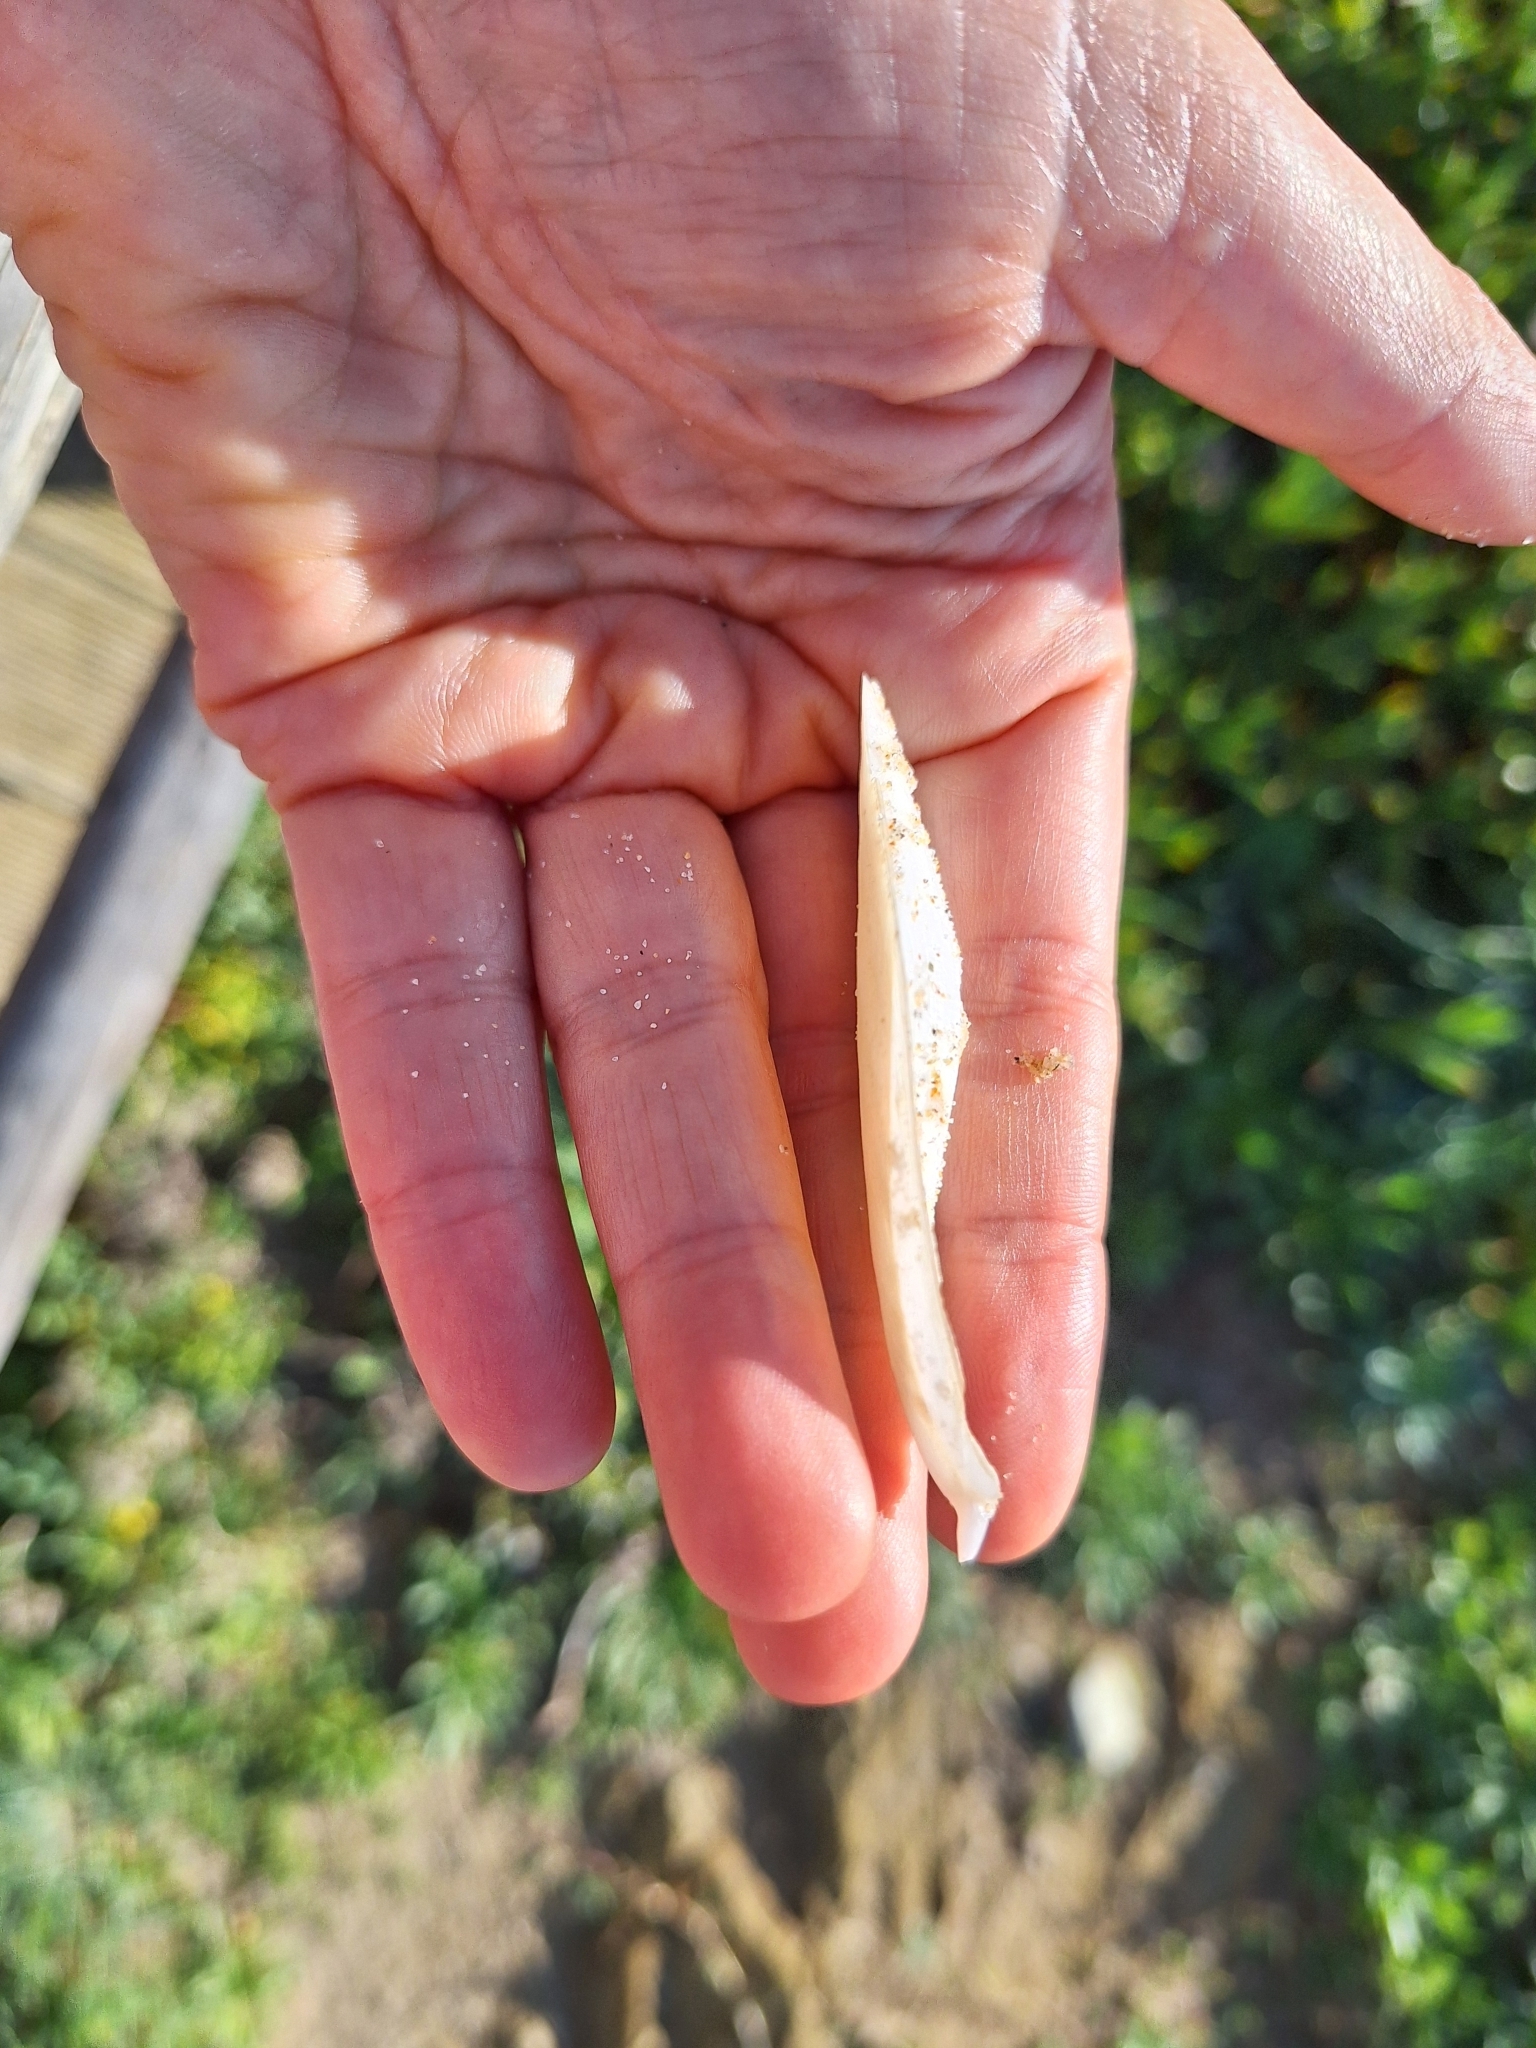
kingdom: Animalia
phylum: Mollusca
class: Cephalopoda
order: Sepiida
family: Sepiidae
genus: Rhombosepion
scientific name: Rhombosepion orbignyanum
